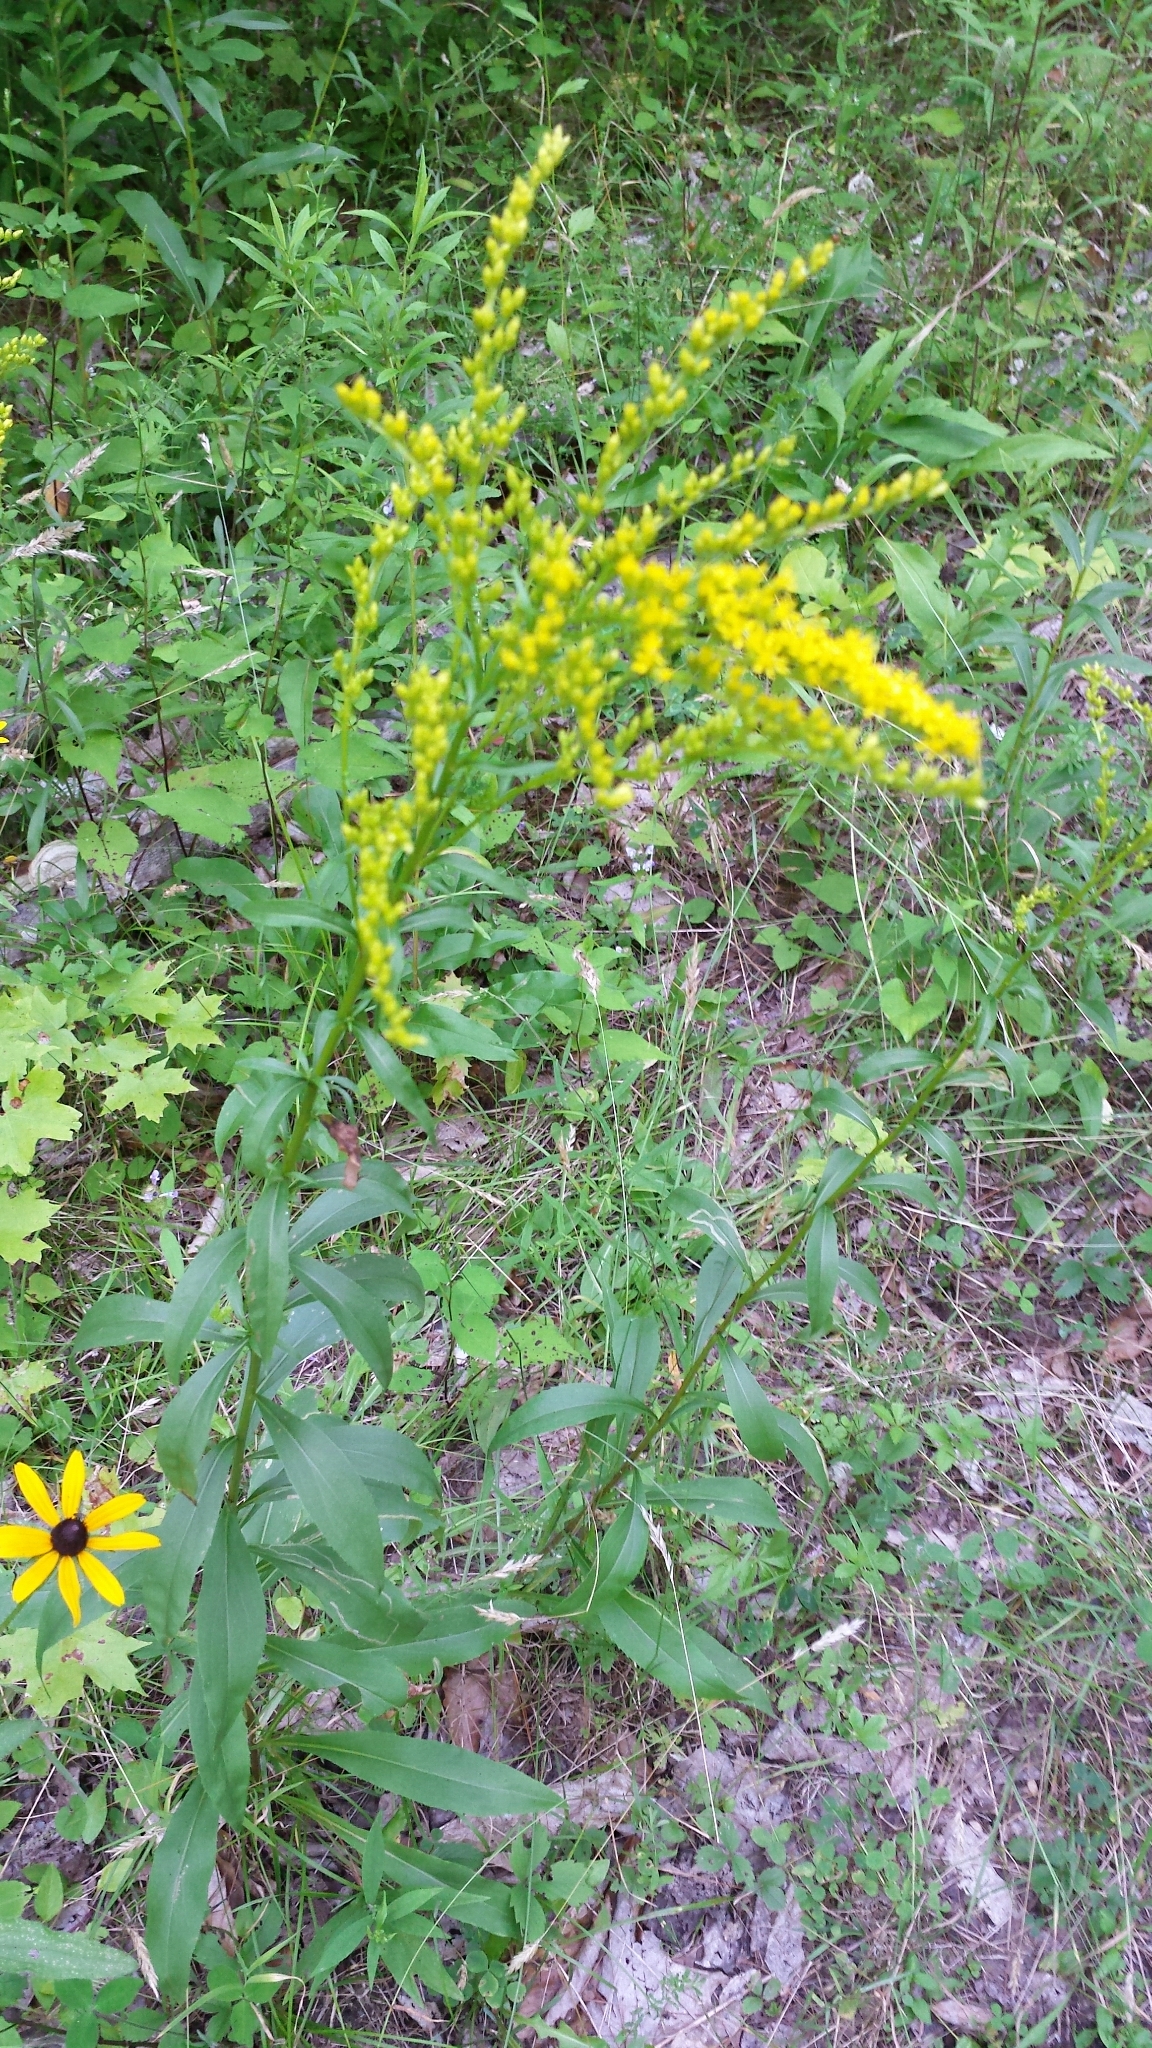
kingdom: Plantae
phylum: Tracheophyta
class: Magnoliopsida
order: Asterales
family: Asteraceae
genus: Solidago
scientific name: Solidago juncea
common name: Early goldenrod
